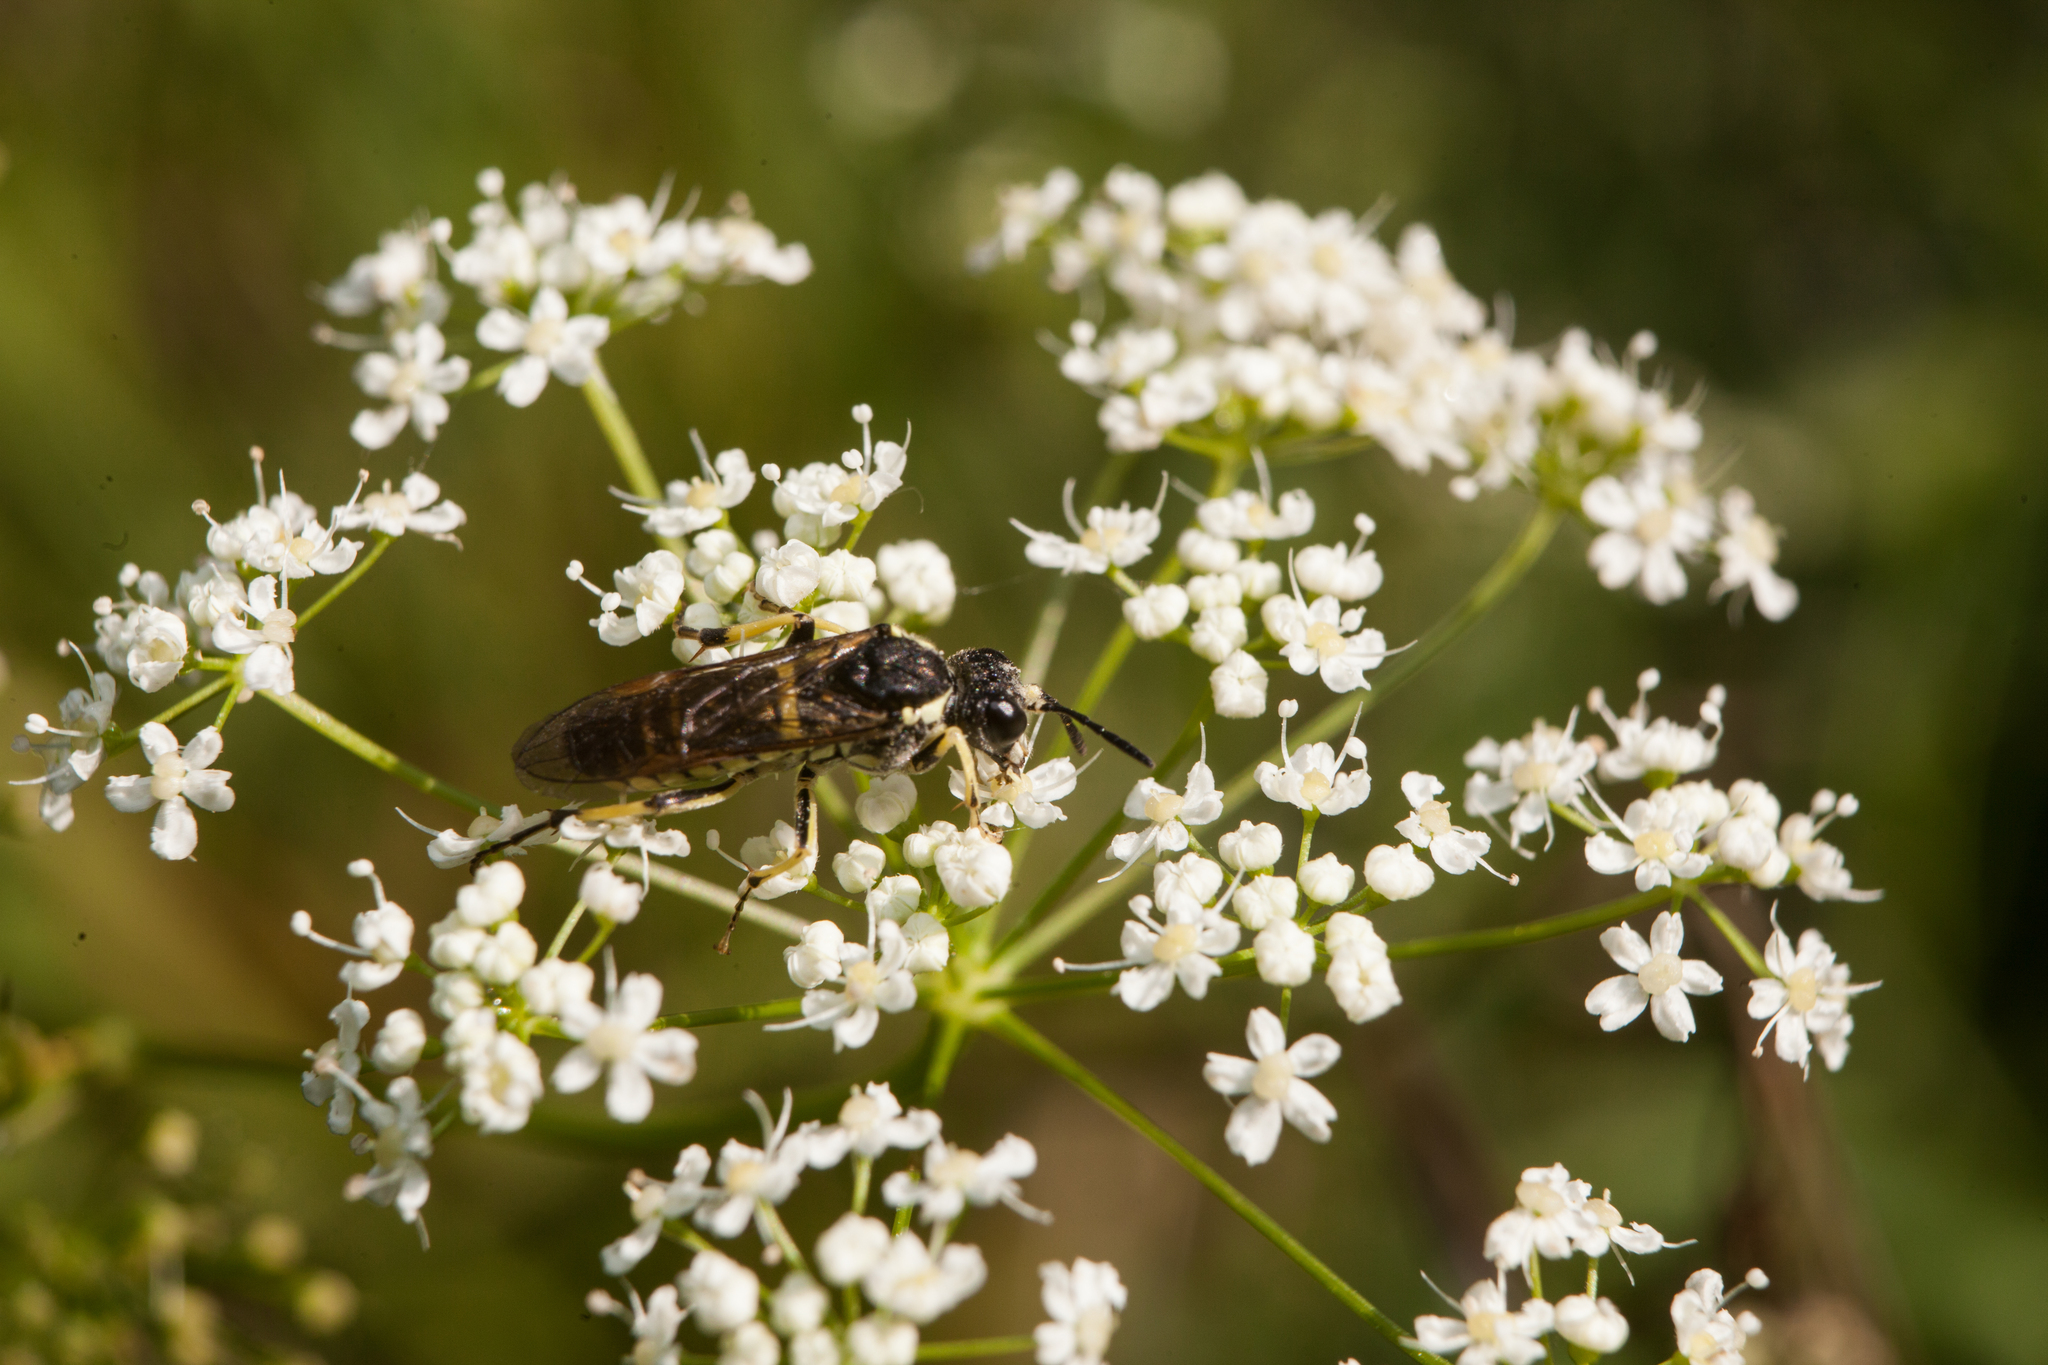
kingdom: Animalia
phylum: Arthropoda
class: Insecta
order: Hymenoptera
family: Tenthredinidae
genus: Tenthredo
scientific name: Tenthredo notha
